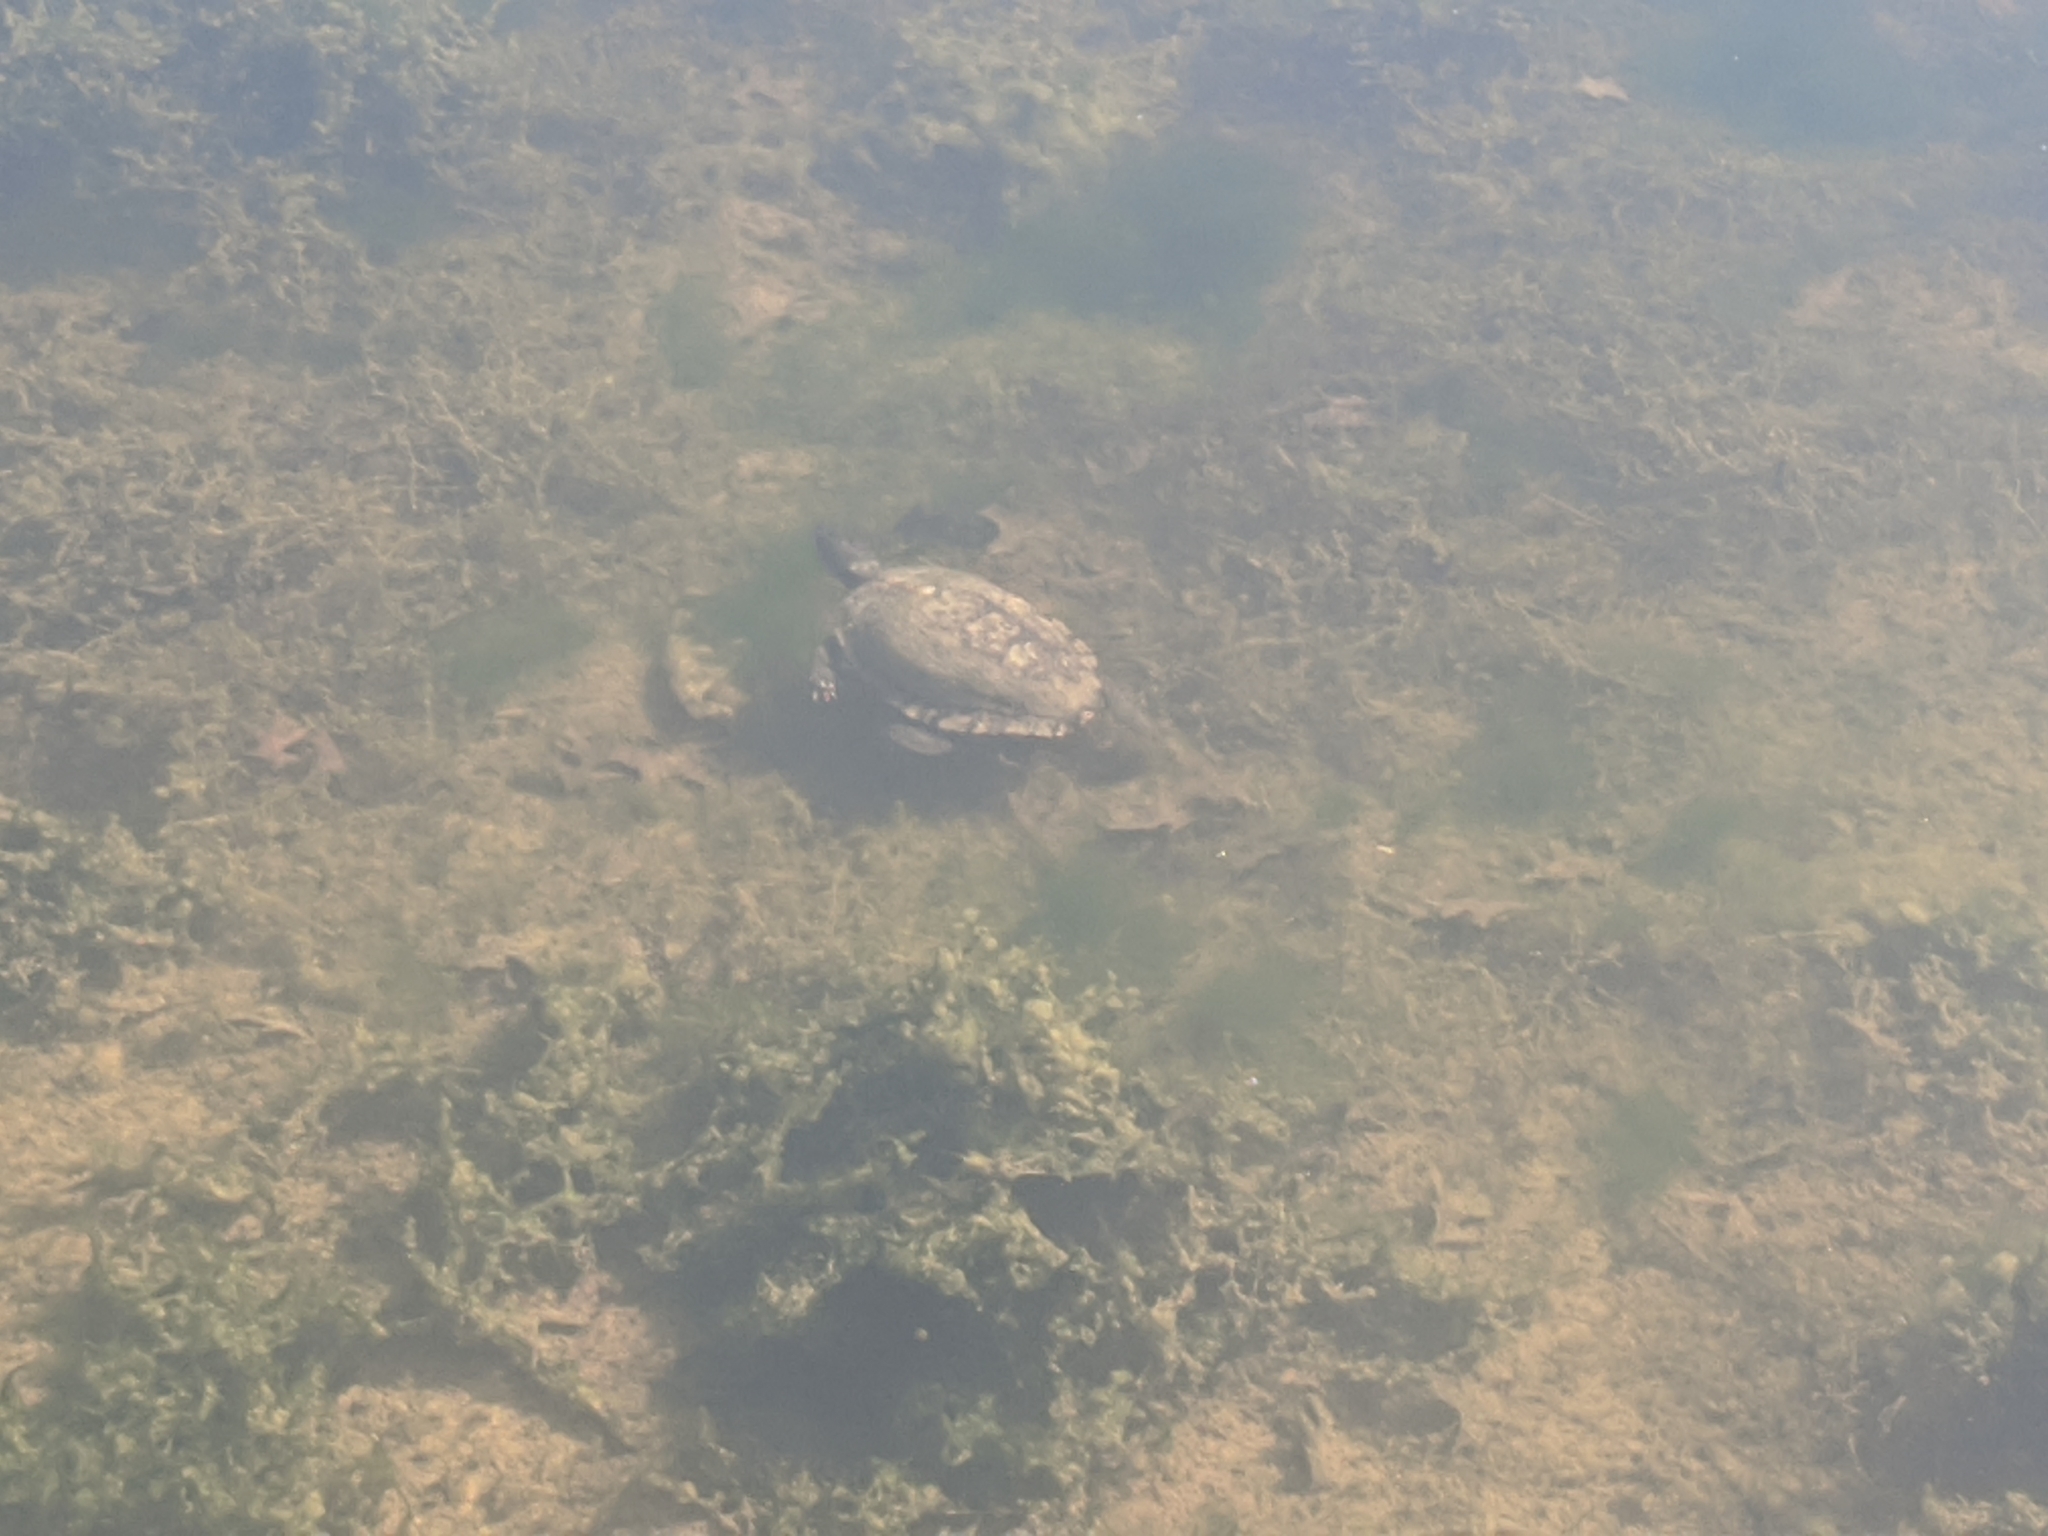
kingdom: Animalia
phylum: Chordata
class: Testudines
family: Emydidae
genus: Trachemys
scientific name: Trachemys scripta
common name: Slider
